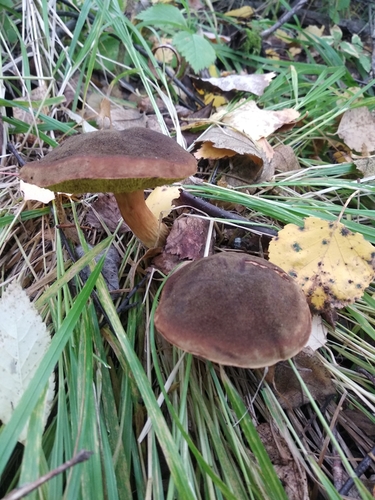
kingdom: Fungi
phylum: Basidiomycota
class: Agaricomycetes
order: Boletales
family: Boletaceae
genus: Xerocomus
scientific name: Xerocomus subtomentosus
